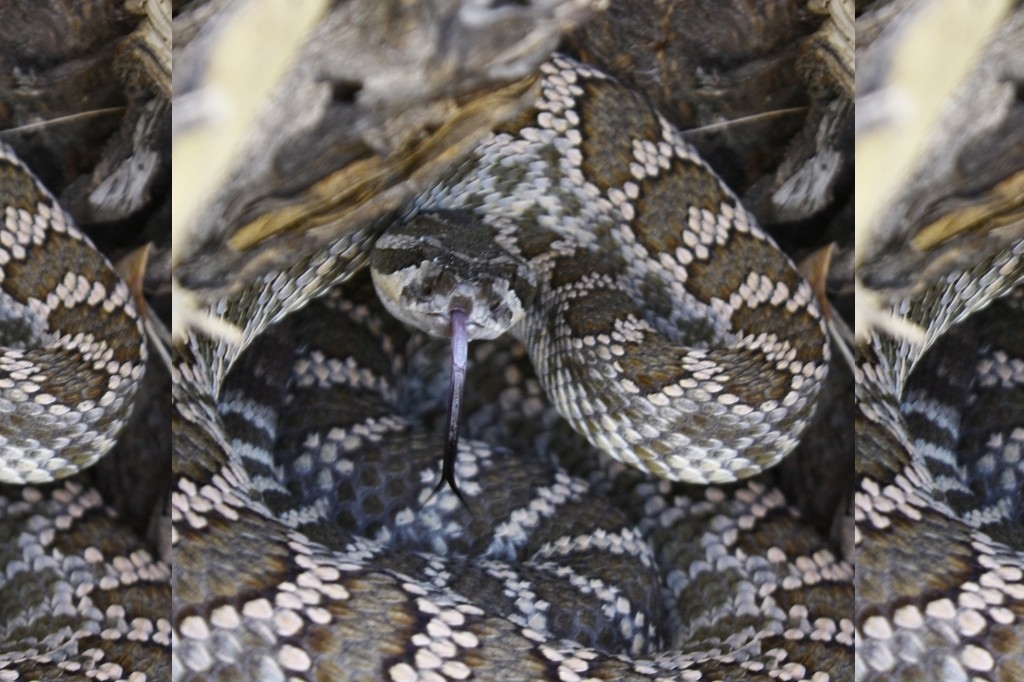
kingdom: Animalia
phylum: Chordata
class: Squamata
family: Viperidae
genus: Crotalus
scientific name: Crotalus oreganus
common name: Abyssus
